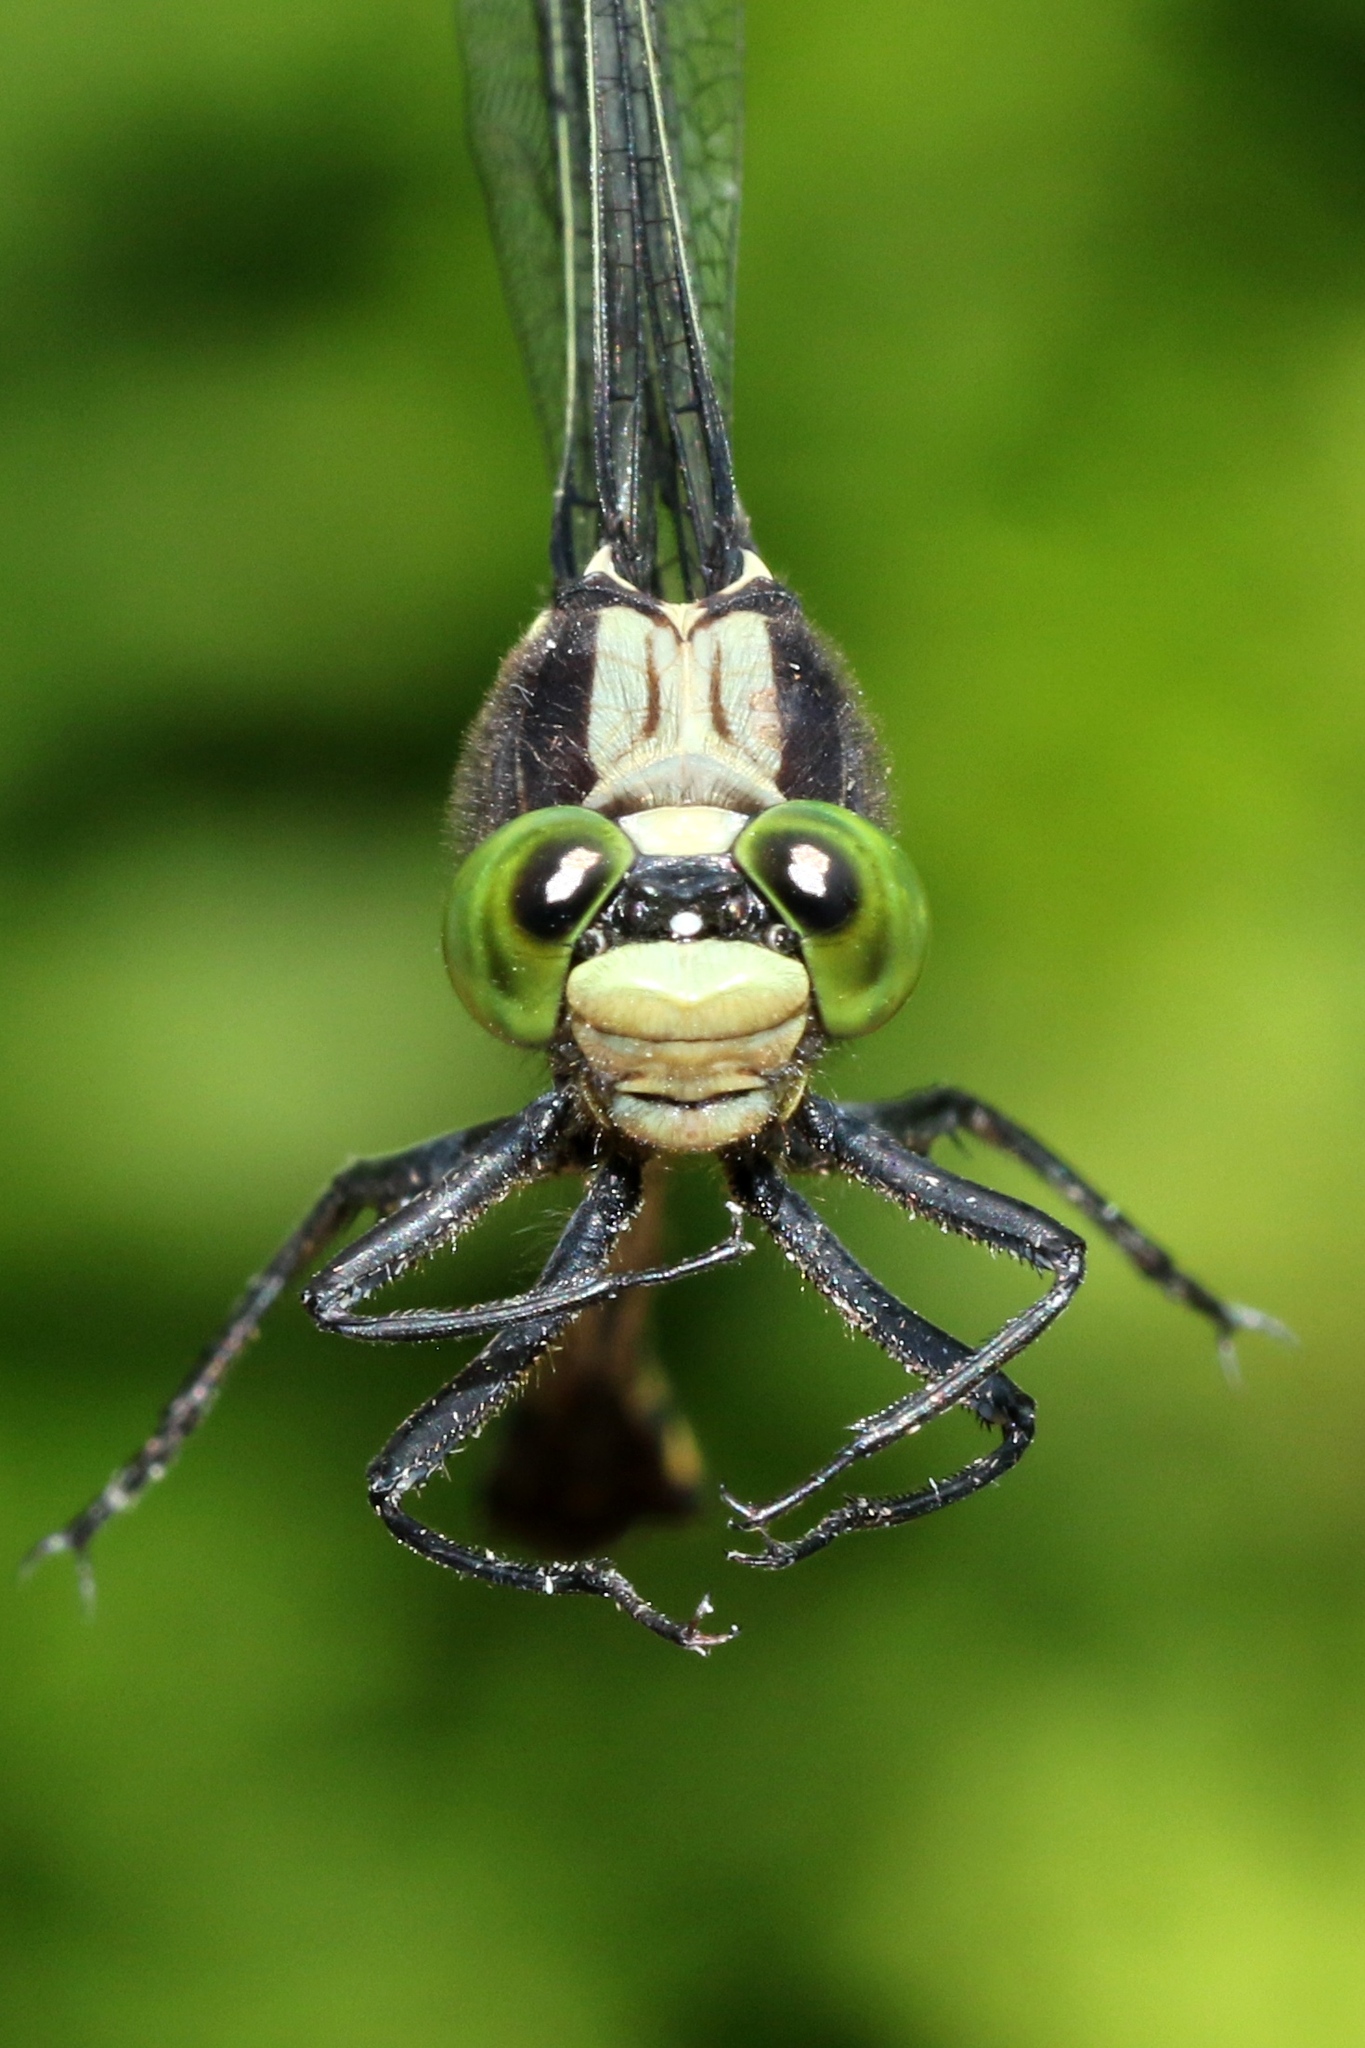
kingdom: Animalia
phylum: Arthropoda
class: Insecta
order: Odonata
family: Gomphidae
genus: Dromogomphus
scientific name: Dromogomphus spinosus
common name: Black-shouldered spinyleg
